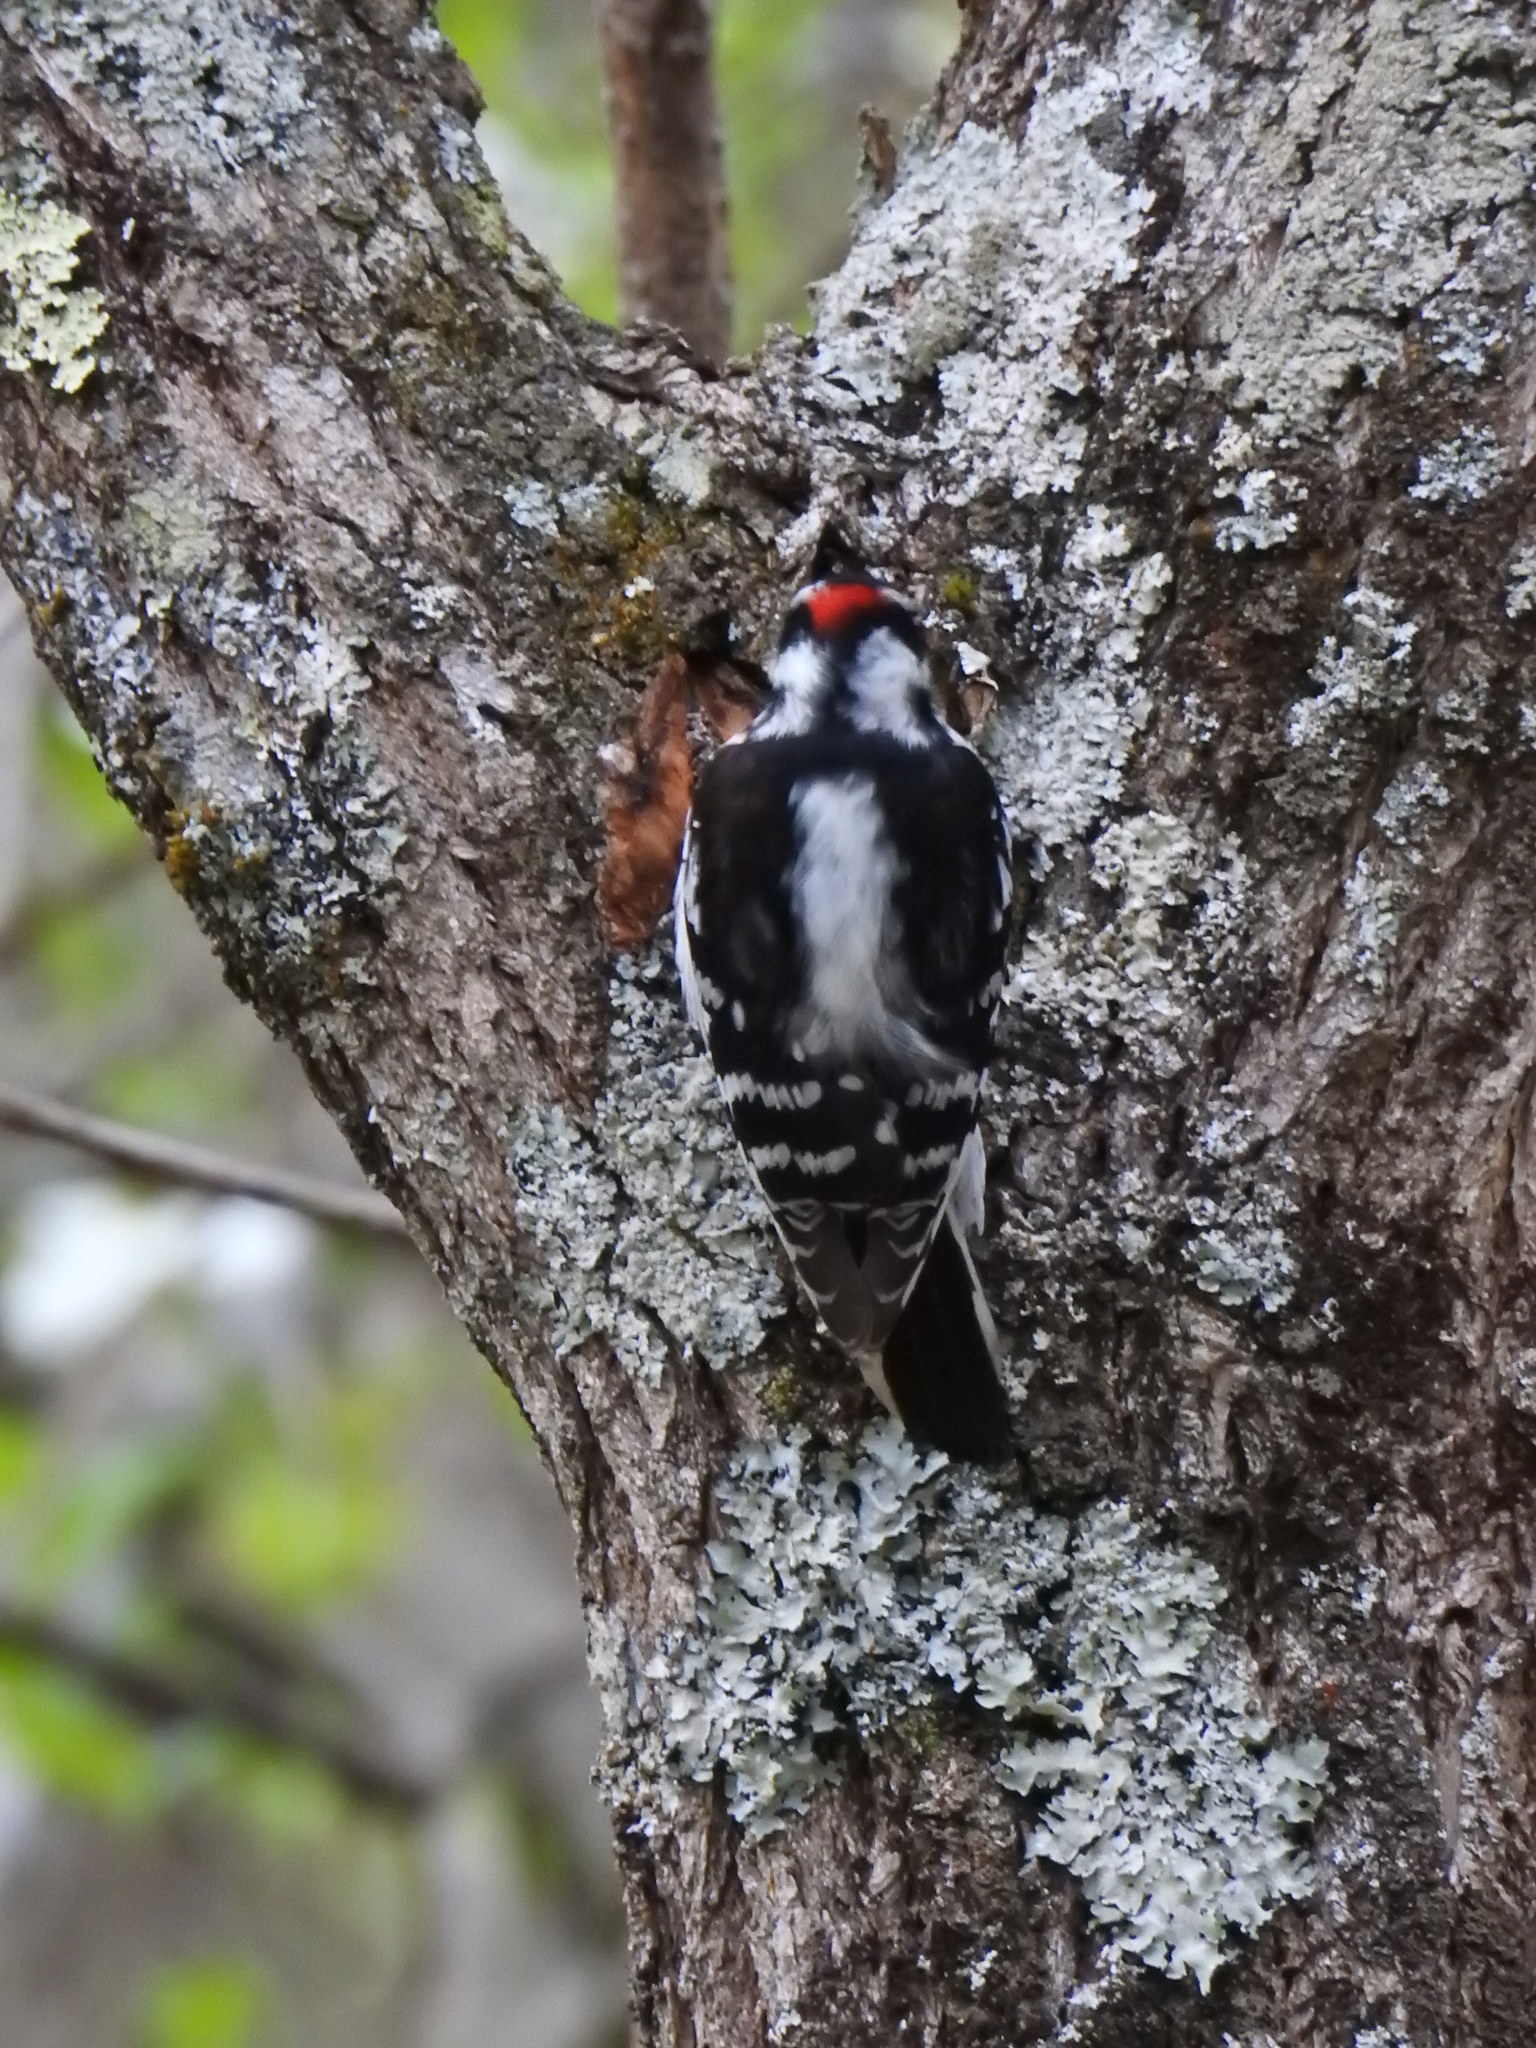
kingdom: Animalia
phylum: Chordata
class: Aves
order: Piciformes
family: Picidae
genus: Dryobates
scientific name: Dryobates pubescens
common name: Downy woodpecker
